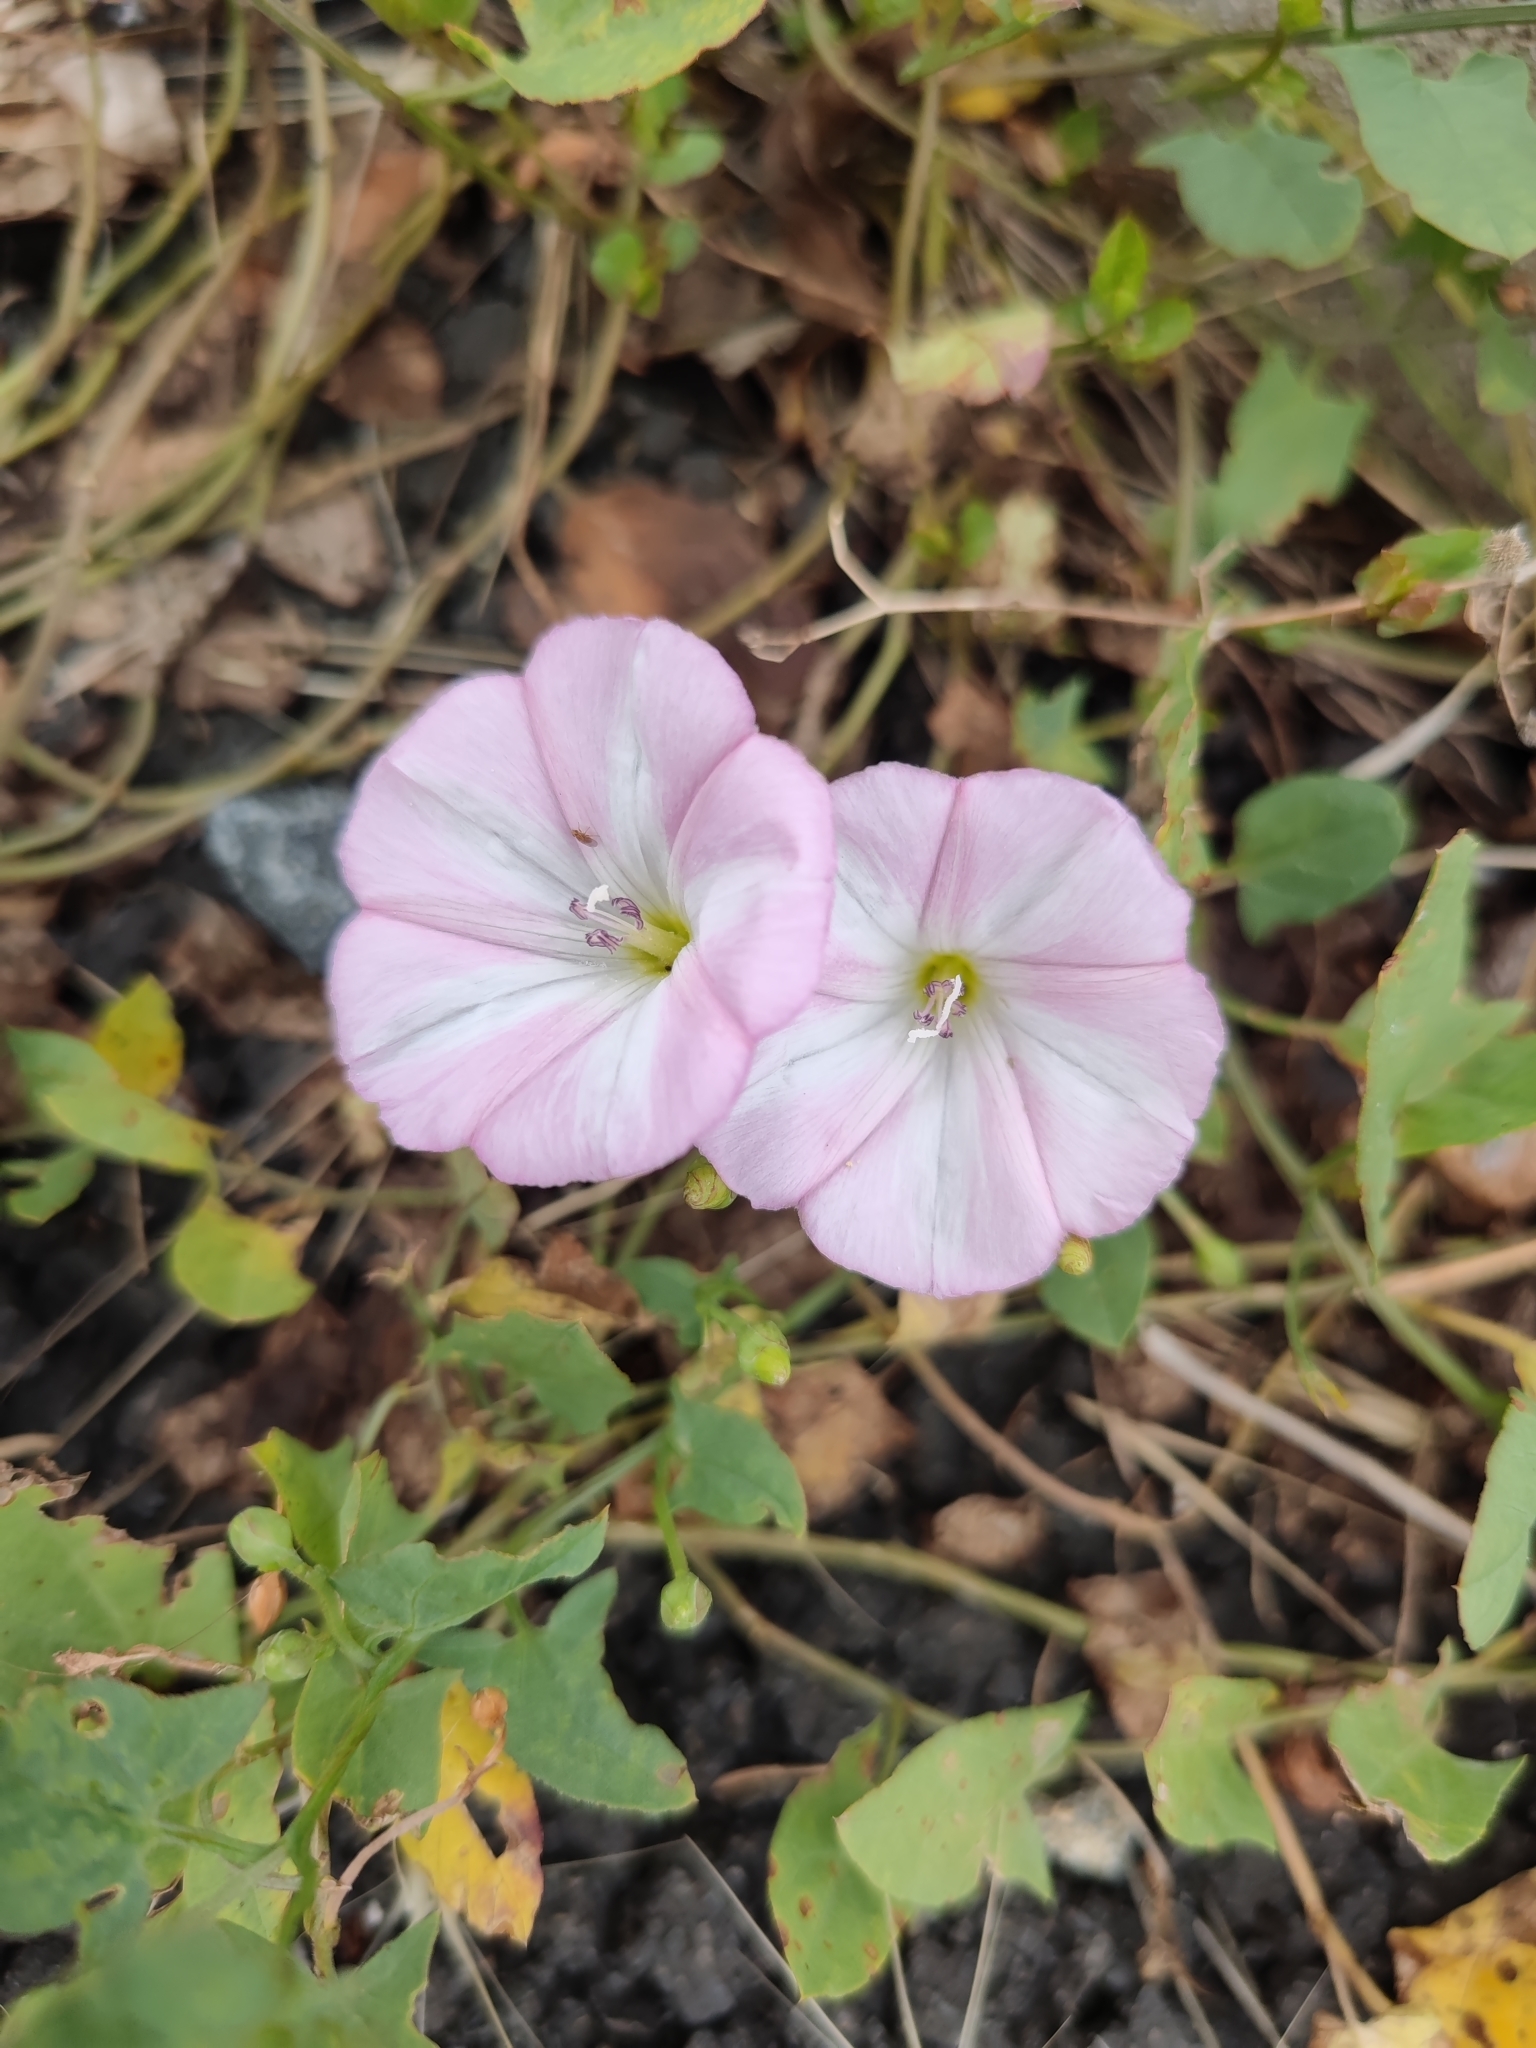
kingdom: Plantae
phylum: Tracheophyta
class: Magnoliopsida
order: Solanales
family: Convolvulaceae
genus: Convolvulus
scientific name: Convolvulus arvensis
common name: Field bindweed
